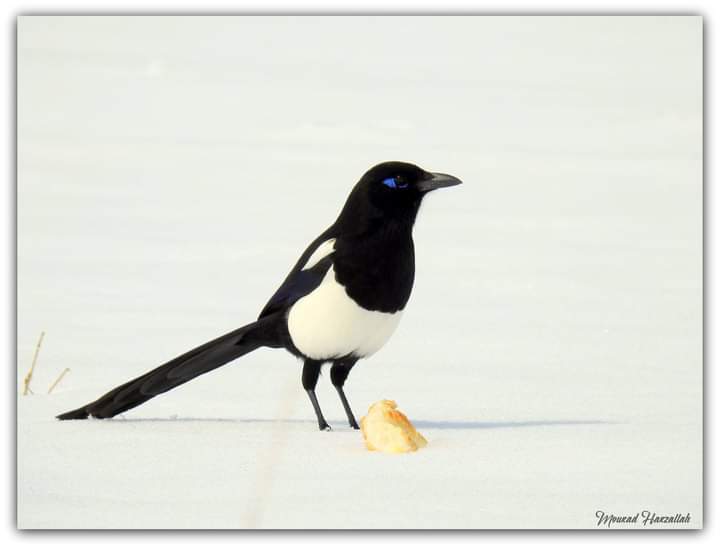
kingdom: Animalia
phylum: Chordata
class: Aves
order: Passeriformes
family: Corvidae
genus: Pica
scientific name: Pica mauritanica
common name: Maghreb magpie
